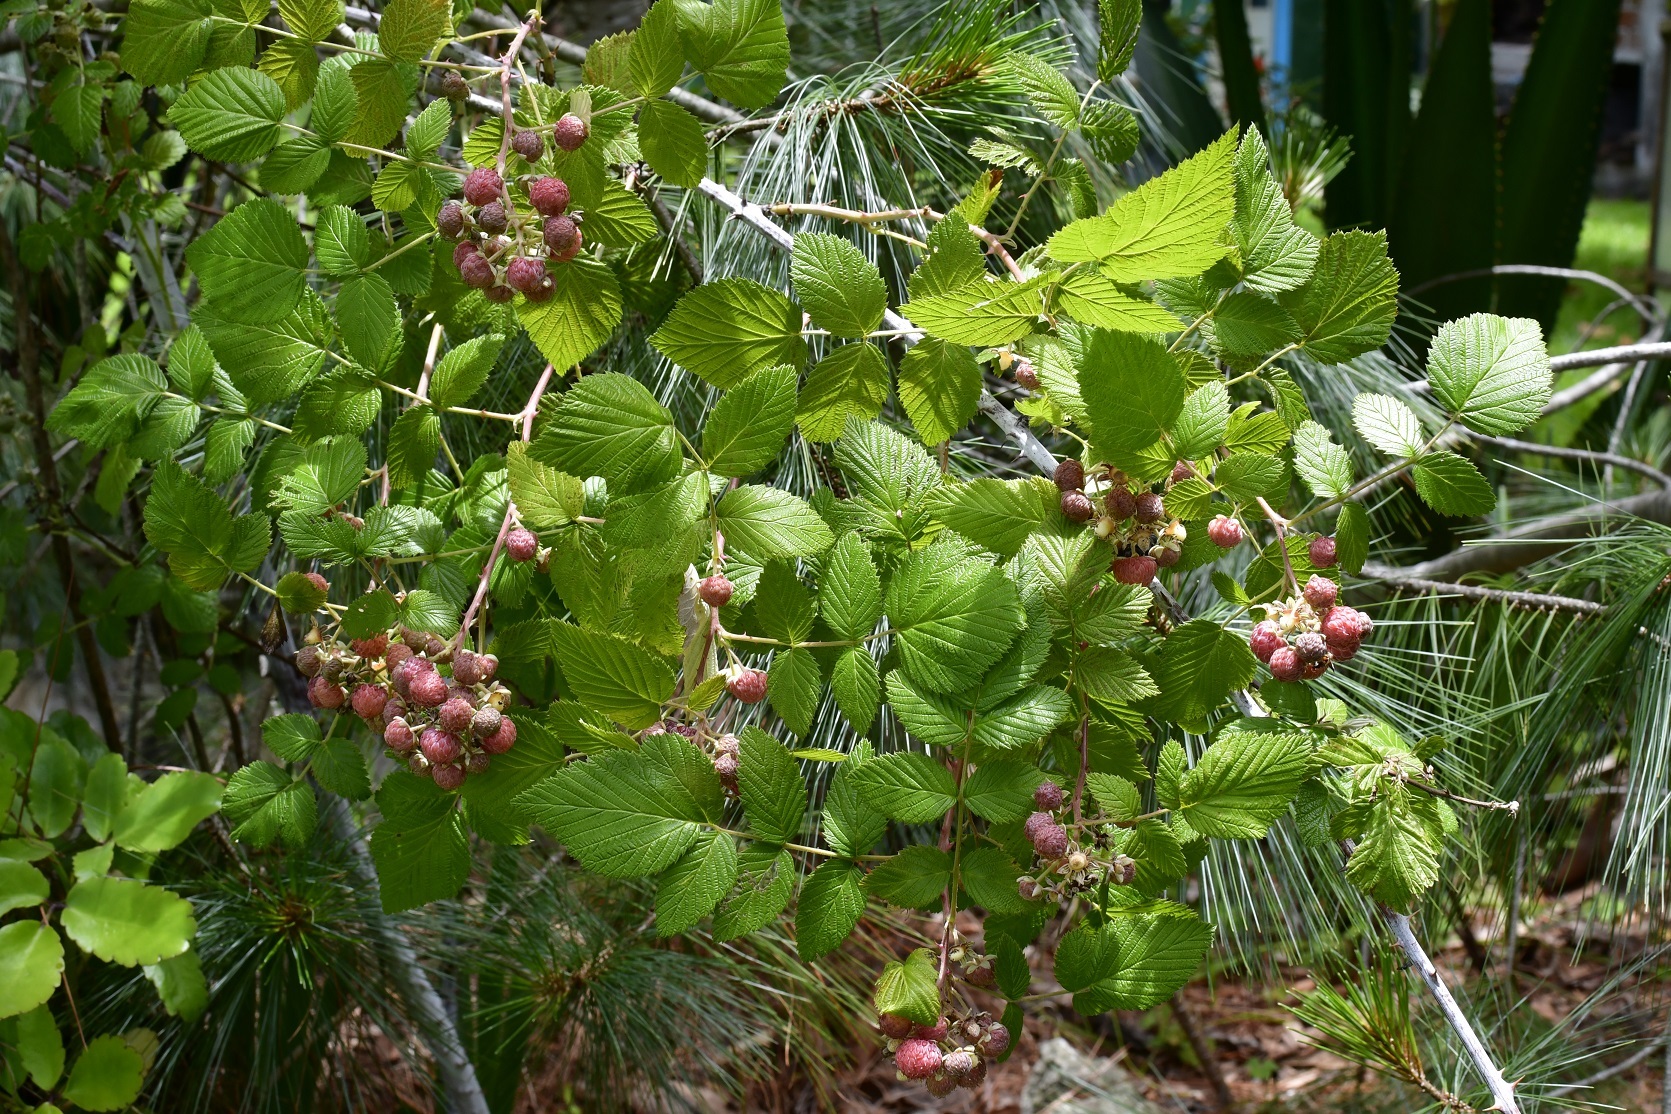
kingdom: Plantae
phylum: Tracheophyta
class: Magnoliopsida
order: Rosales
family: Rosaceae
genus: Rubus
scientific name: Rubus niveus
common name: Snowpeaks raspberry
